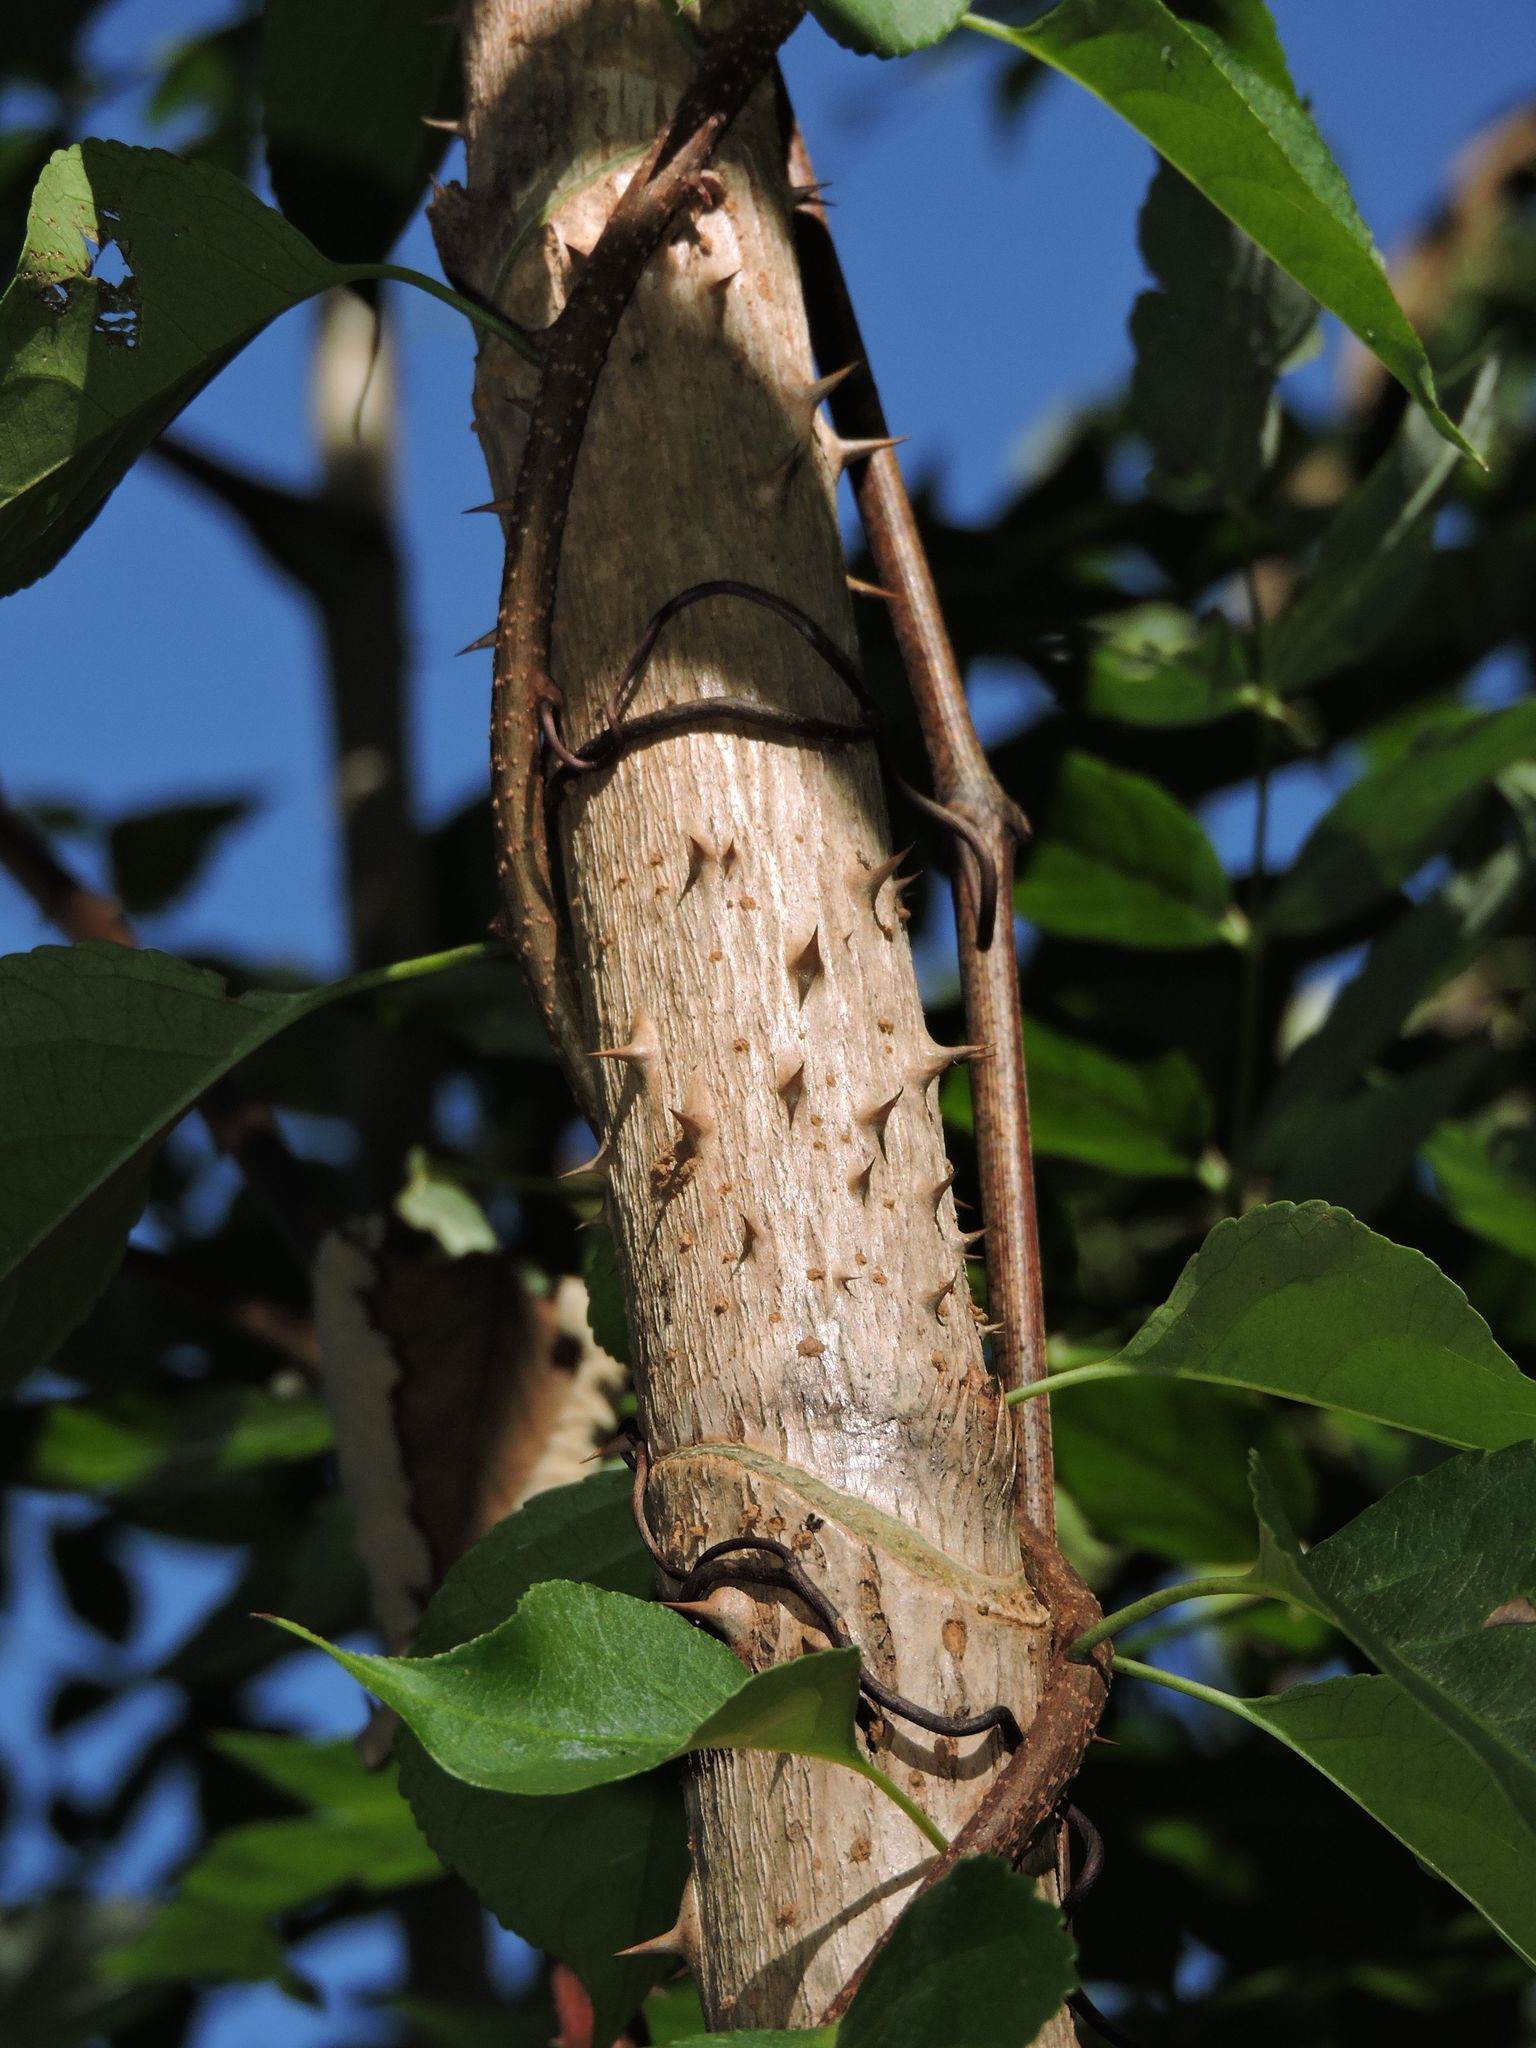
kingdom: Plantae
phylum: Tracheophyta
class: Magnoliopsida
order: Apiales
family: Araliaceae
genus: Aralia
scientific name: Aralia spinosa
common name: Hercules'-club
